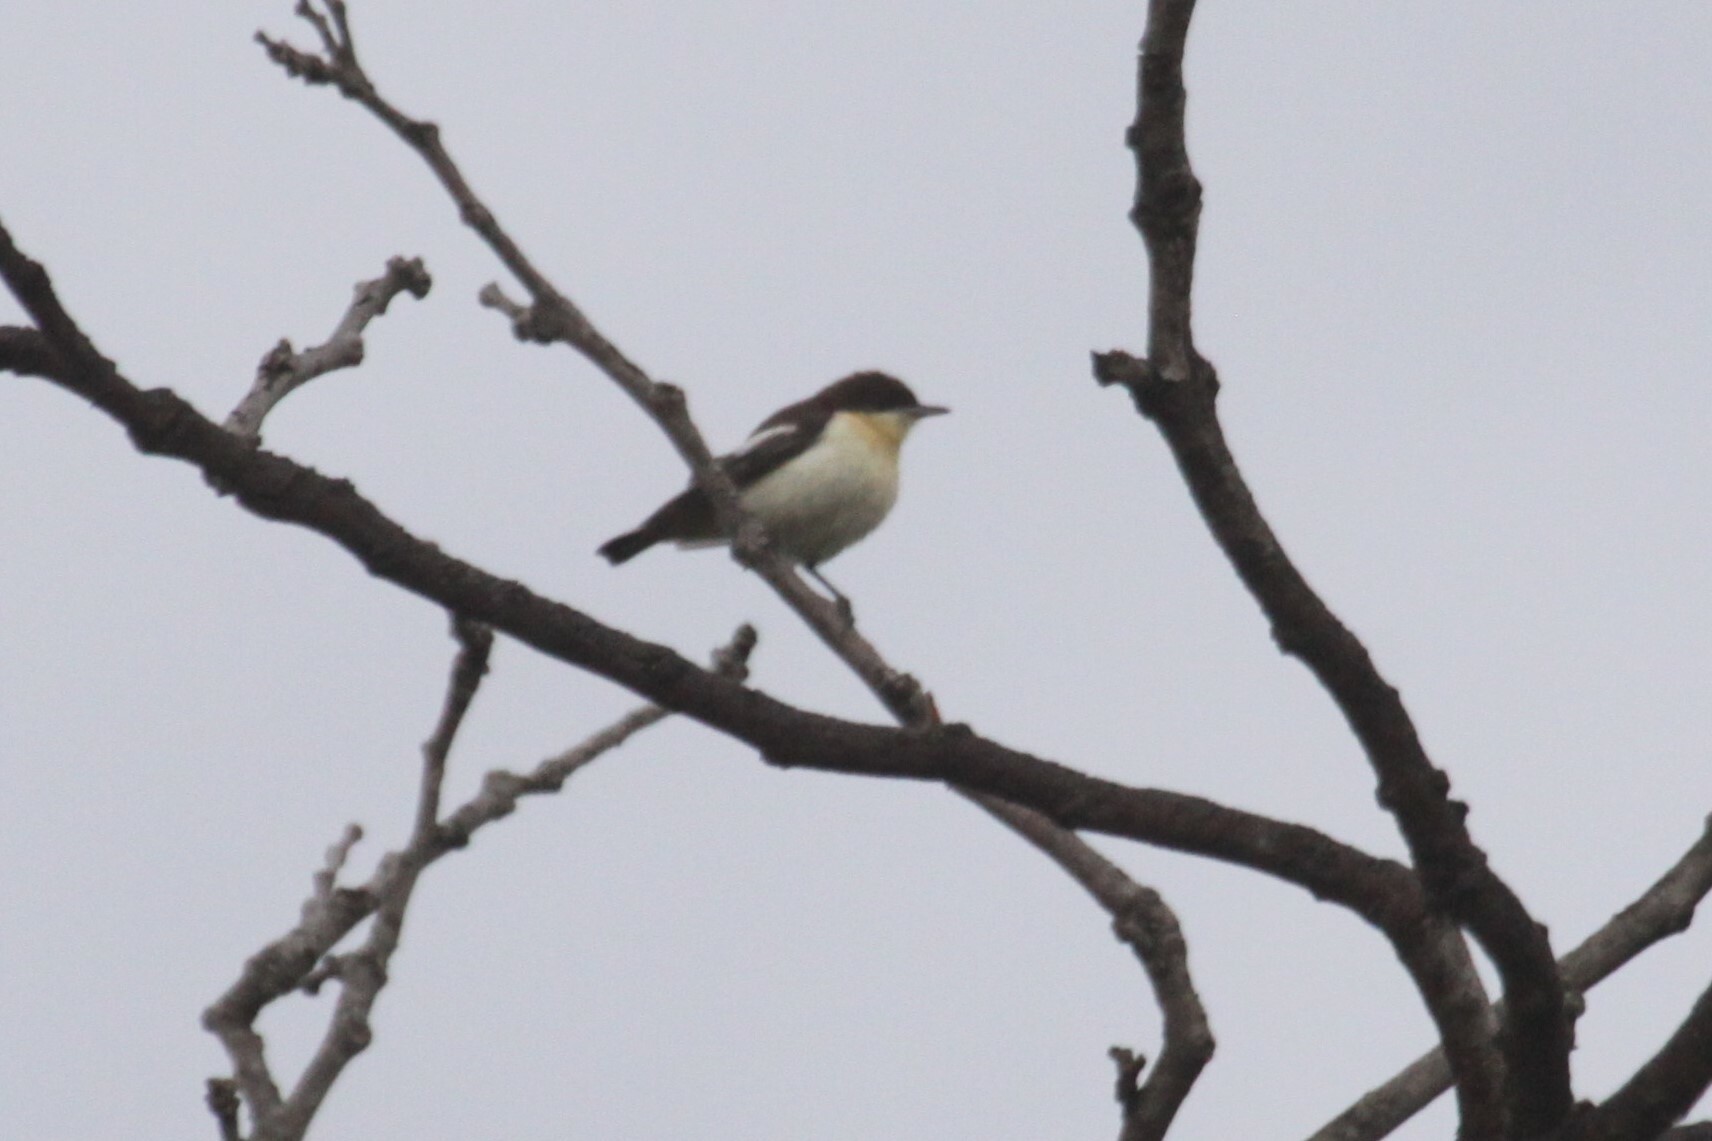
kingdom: Animalia
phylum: Chordata
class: Aves
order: Passeriformes
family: Hyliotidae
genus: Hyliota
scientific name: Hyliota australis
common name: Southern hyliota
